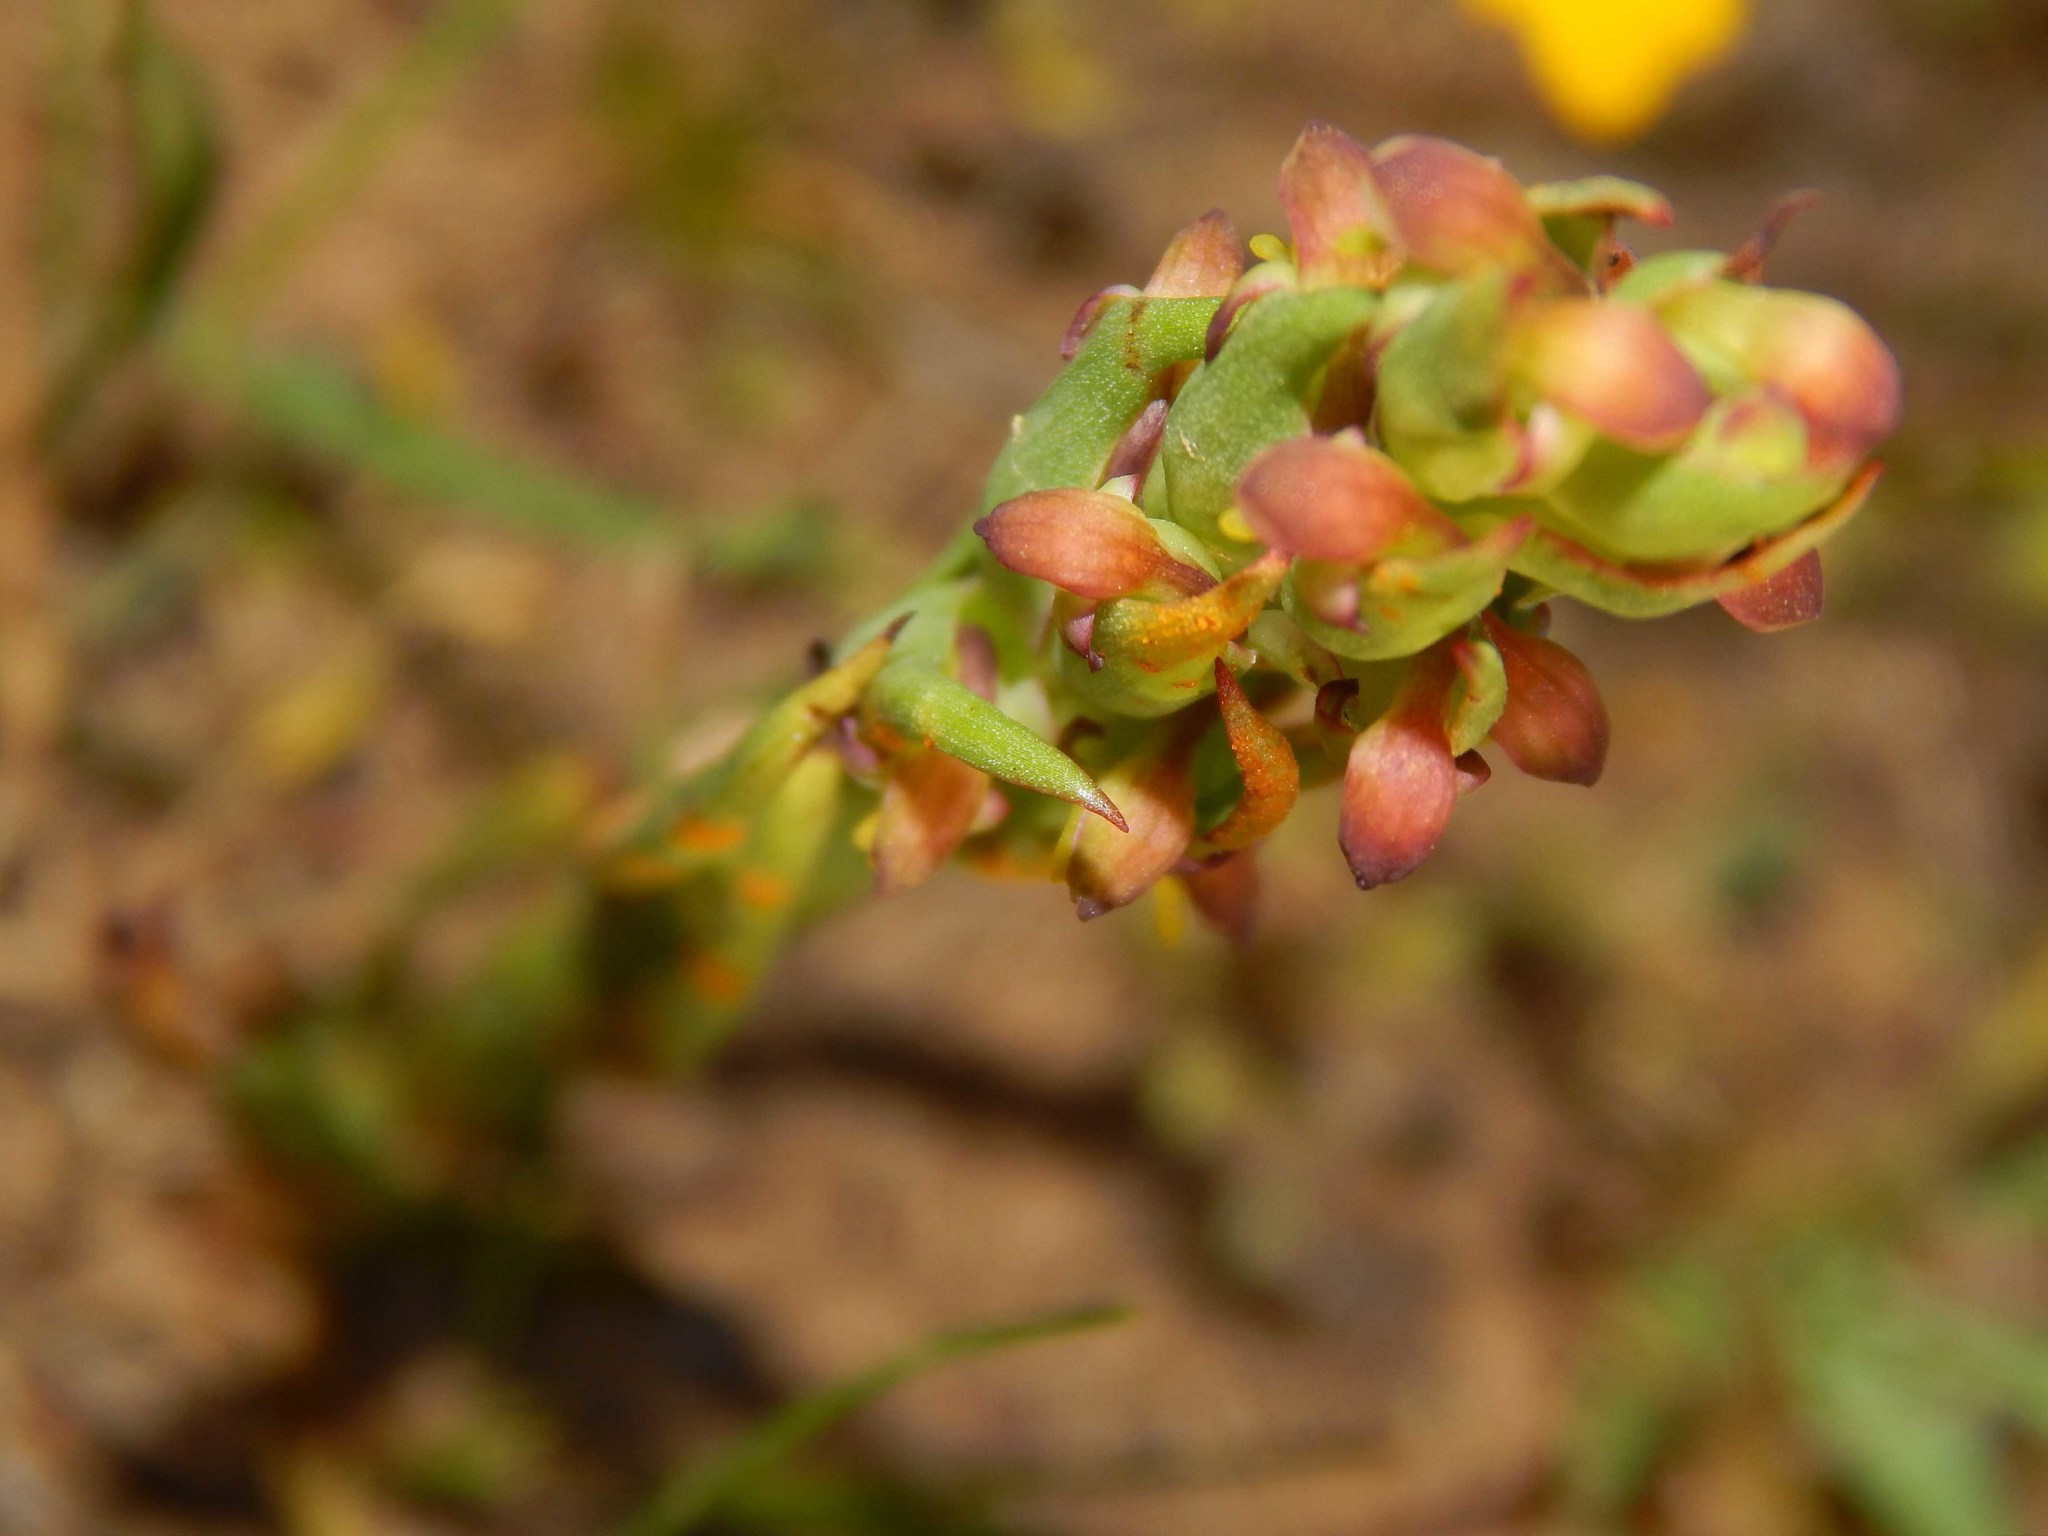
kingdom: Plantae
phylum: Tracheophyta
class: Liliopsida
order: Asparagales
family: Orchidaceae
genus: Disa
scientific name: Disa bracteata
